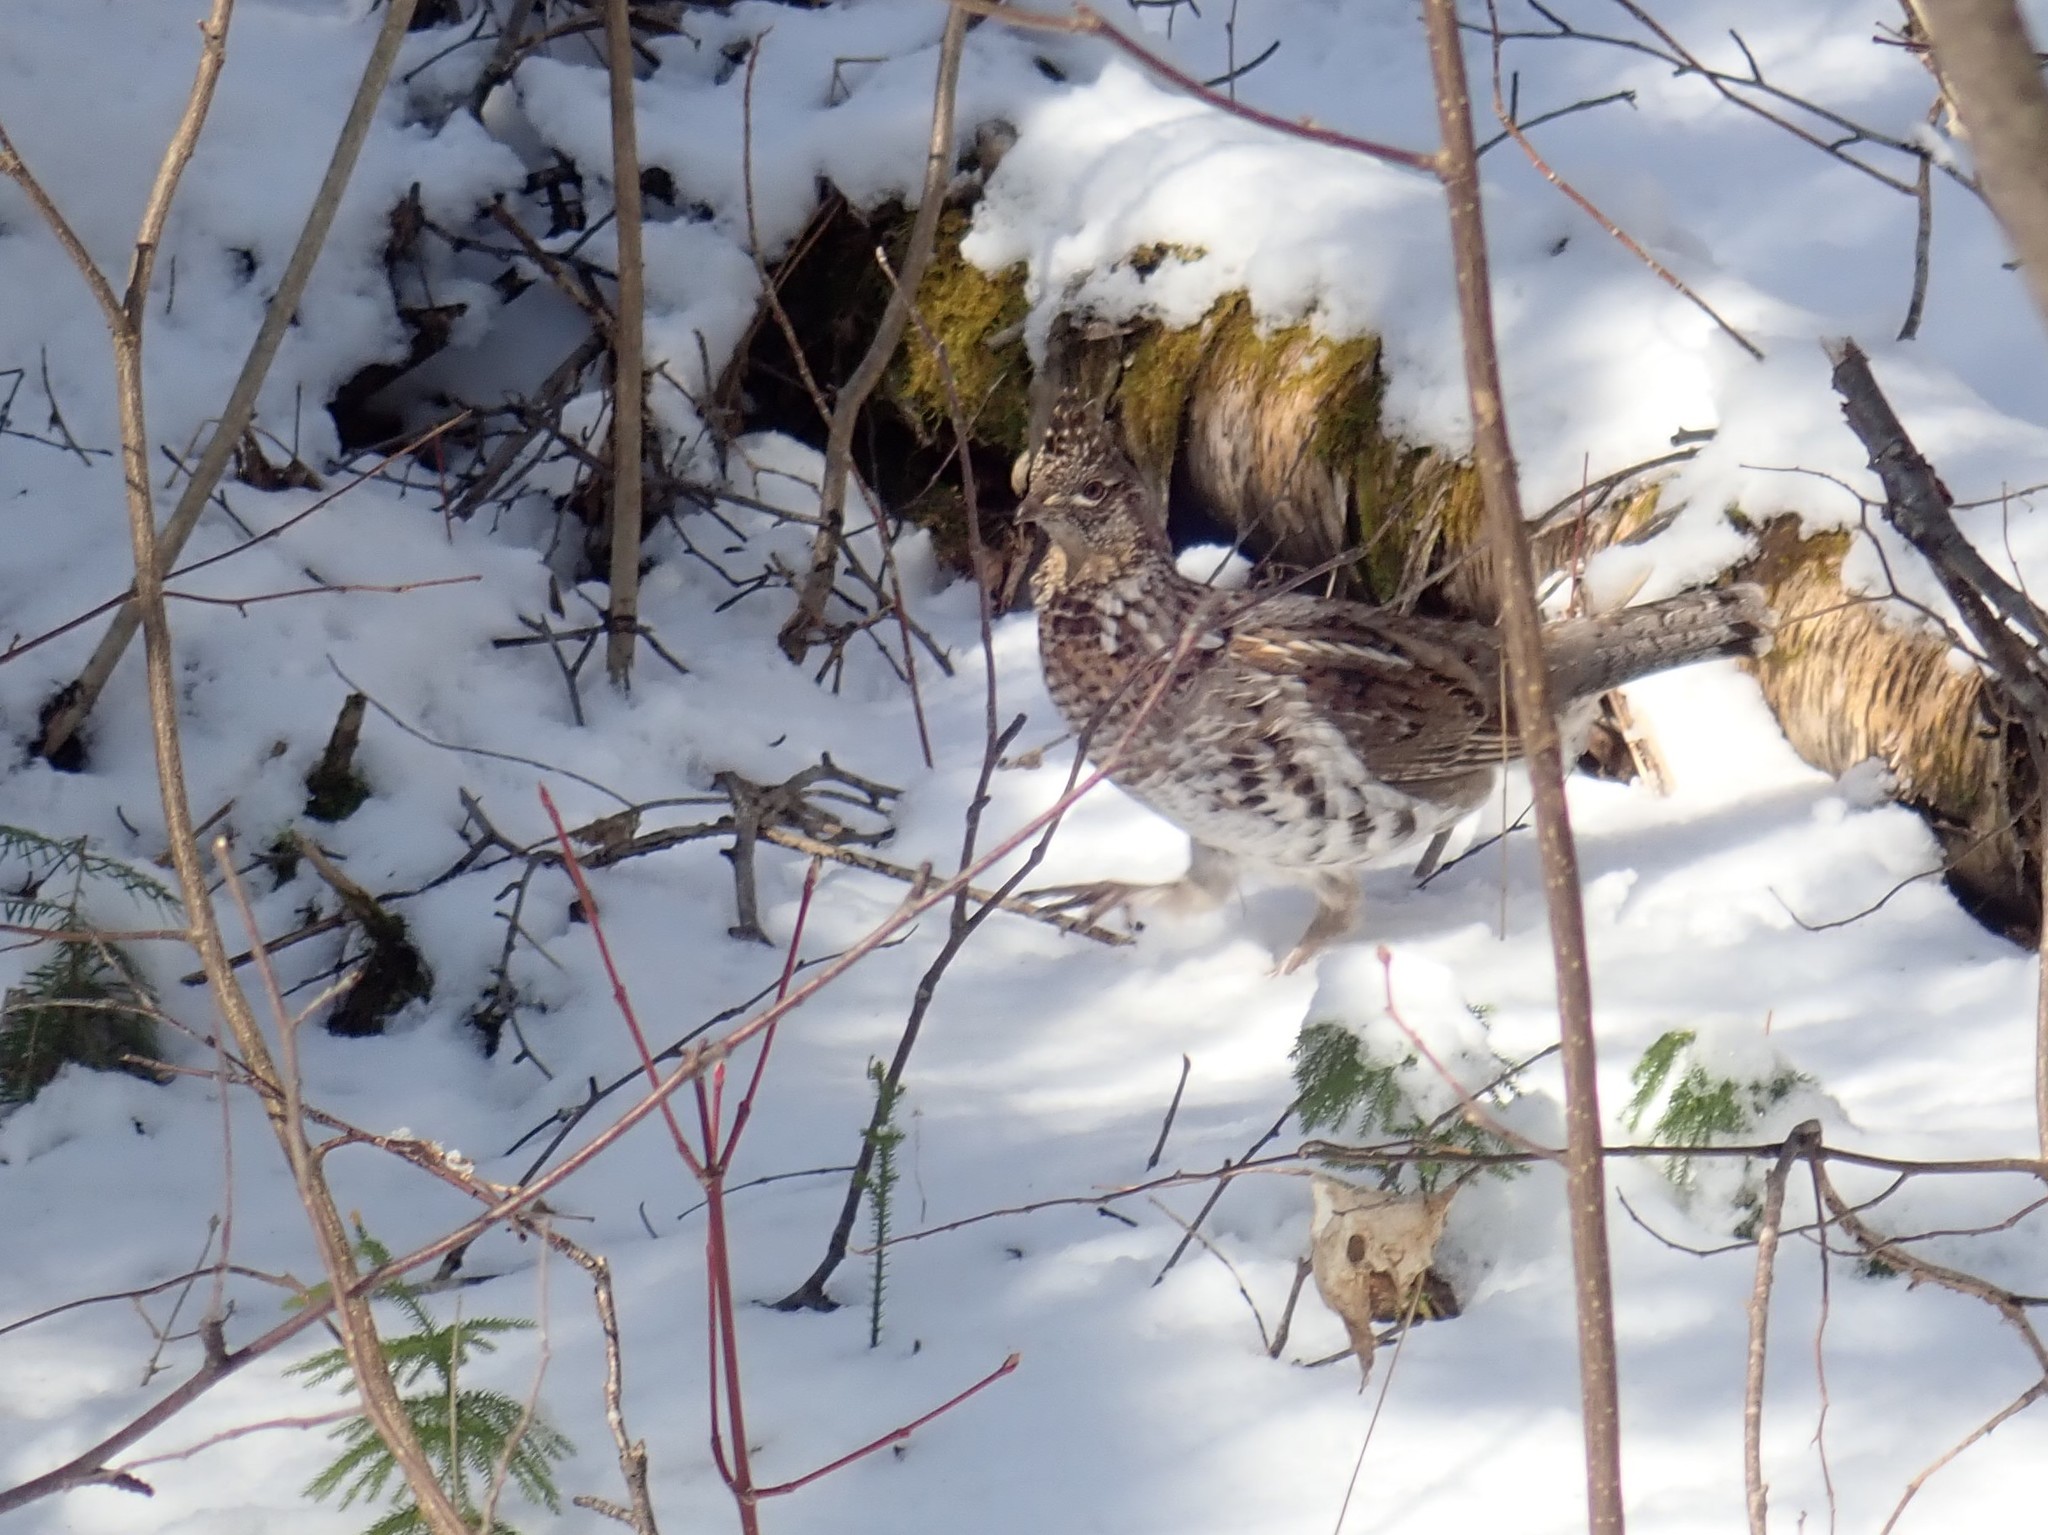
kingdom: Animalia
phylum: Chordata
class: Aves
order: Galliformes
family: Phasianidae
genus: Bonasa
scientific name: Bonasa umbellus
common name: Ruffed grouse
